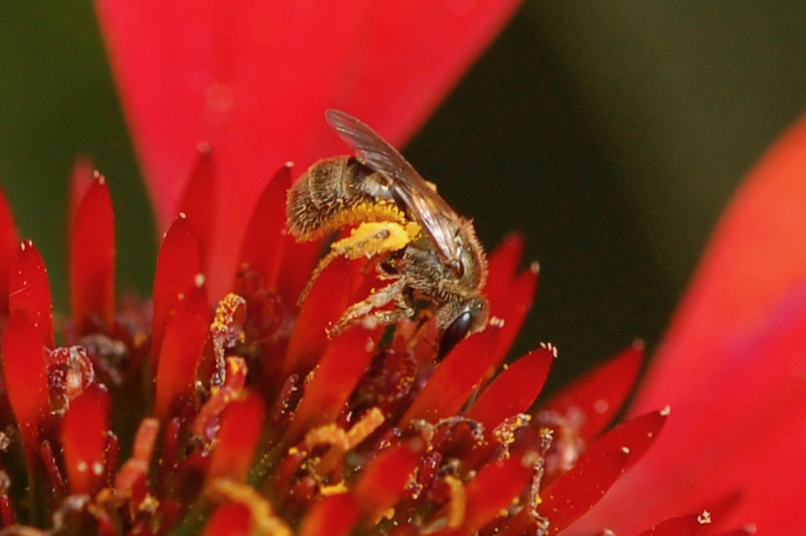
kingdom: Animalia
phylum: Arthropoda
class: Insecta
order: Hymenoptera
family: Halictidae
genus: Dialictus
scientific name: Dialictus
